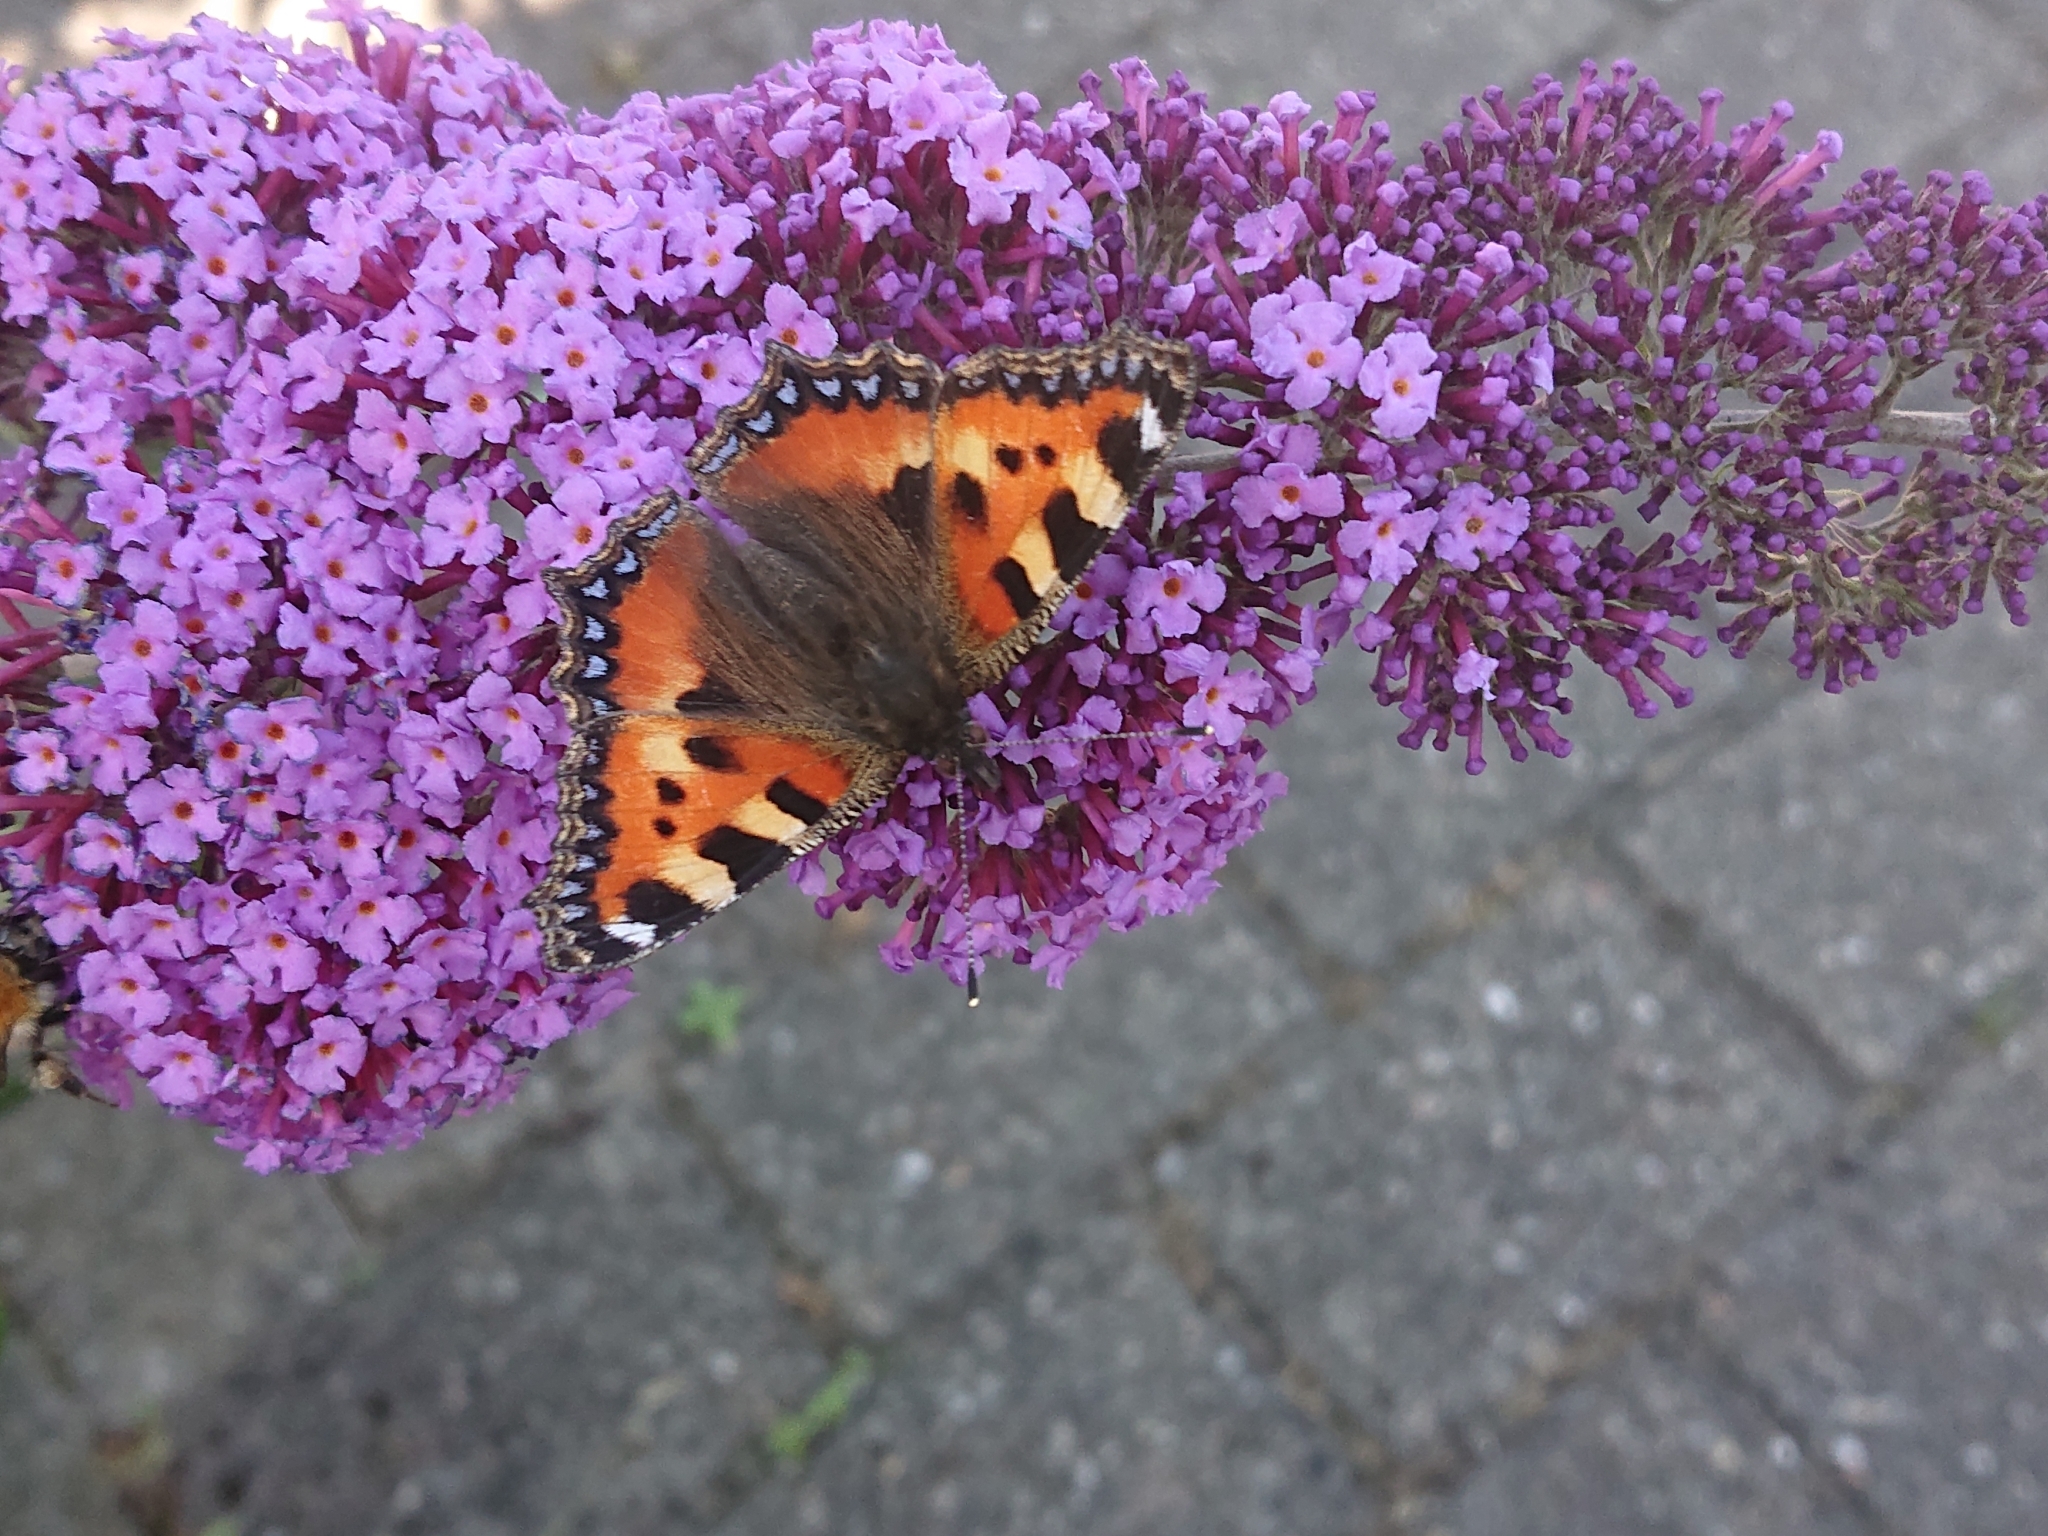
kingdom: Animalia
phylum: Arthropoda
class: Insecta
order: Lepidoptera
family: Nymphalidae
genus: Aglais
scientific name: Aglais urticae
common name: Small tortoiseshell
